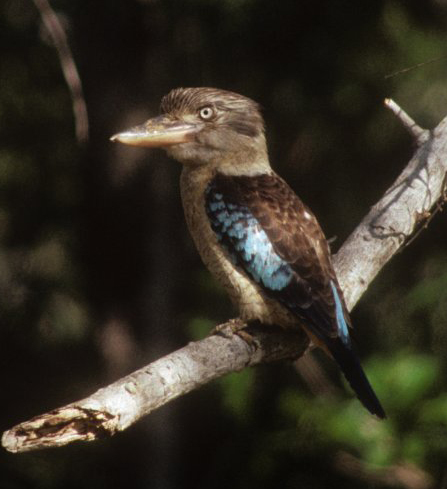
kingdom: Animalia
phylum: Chordata
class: Aves
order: Coraciiformes
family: Alcedinidae
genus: Dacelo
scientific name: Dacelo leachii
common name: Blue-winged kookaburra
